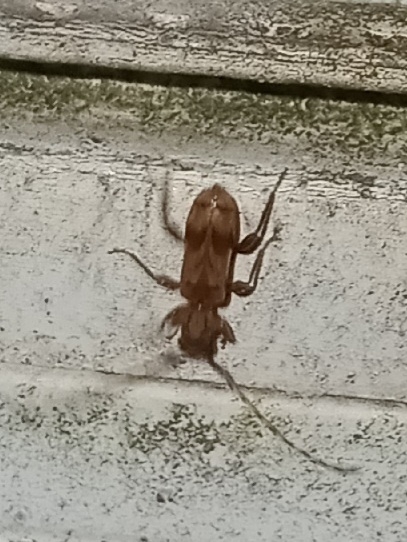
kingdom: Animalia
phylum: Arthropoda
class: Insecta
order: Coleoptera
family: Cerambycidae
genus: Obrium
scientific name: Obrium maculatum
